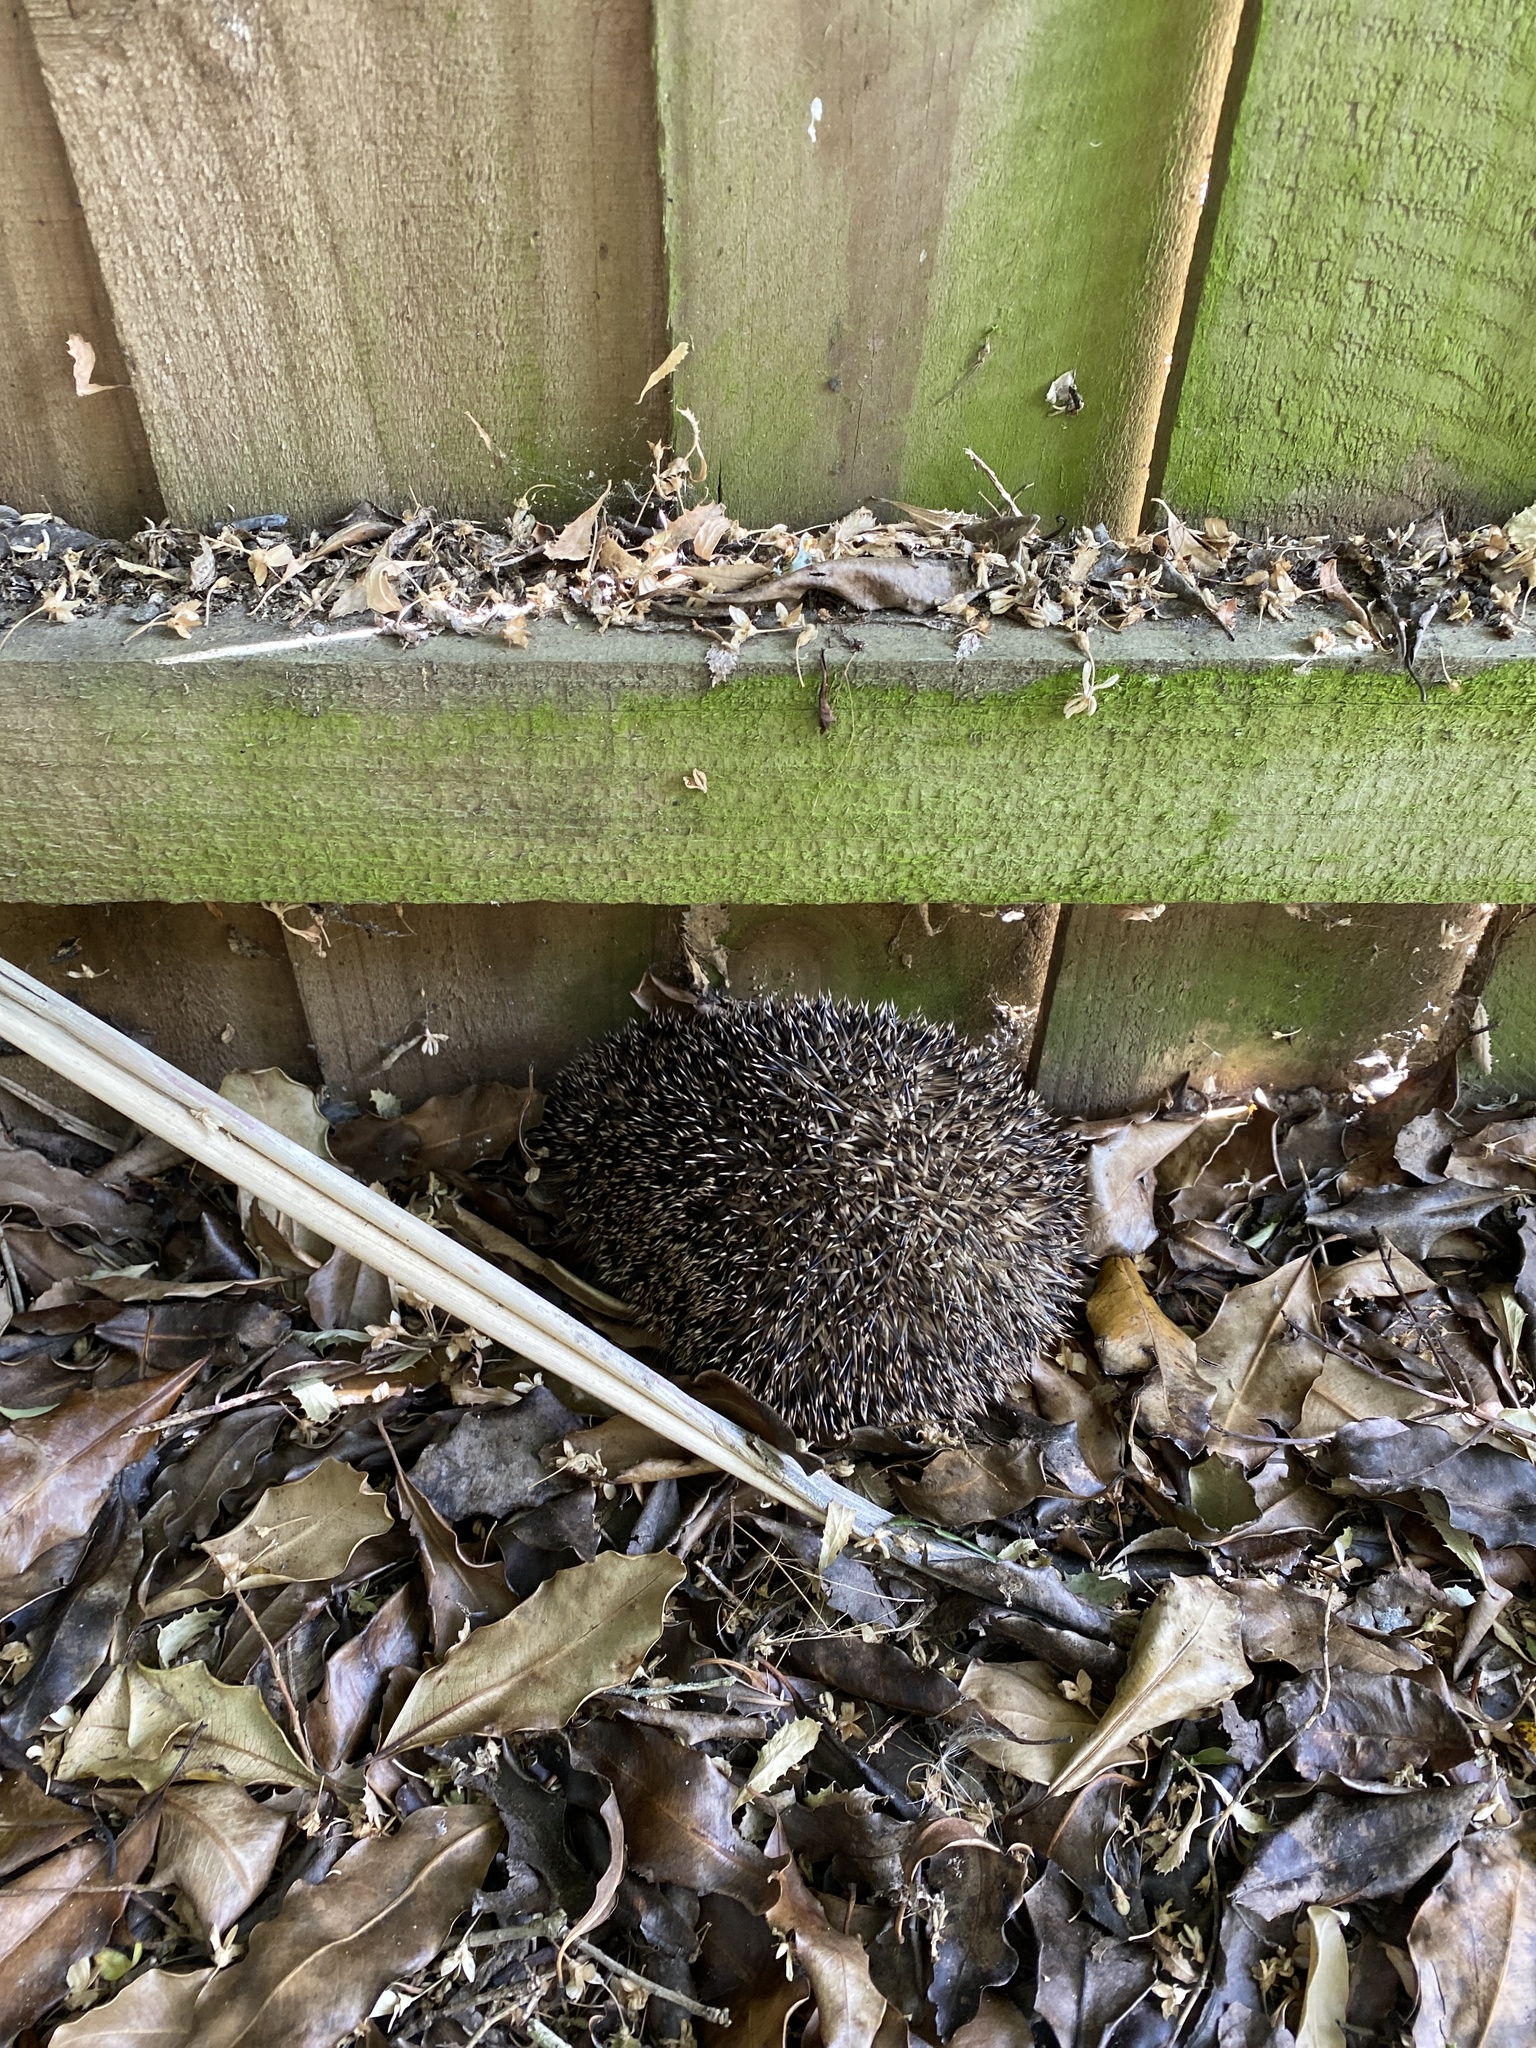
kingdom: Animalia
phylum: Chordata
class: Mammalia
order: Erinaceomorpha
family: Erinaceidae
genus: Erinaceus
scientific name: Erinaceus europaeus
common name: West european hedgehog
